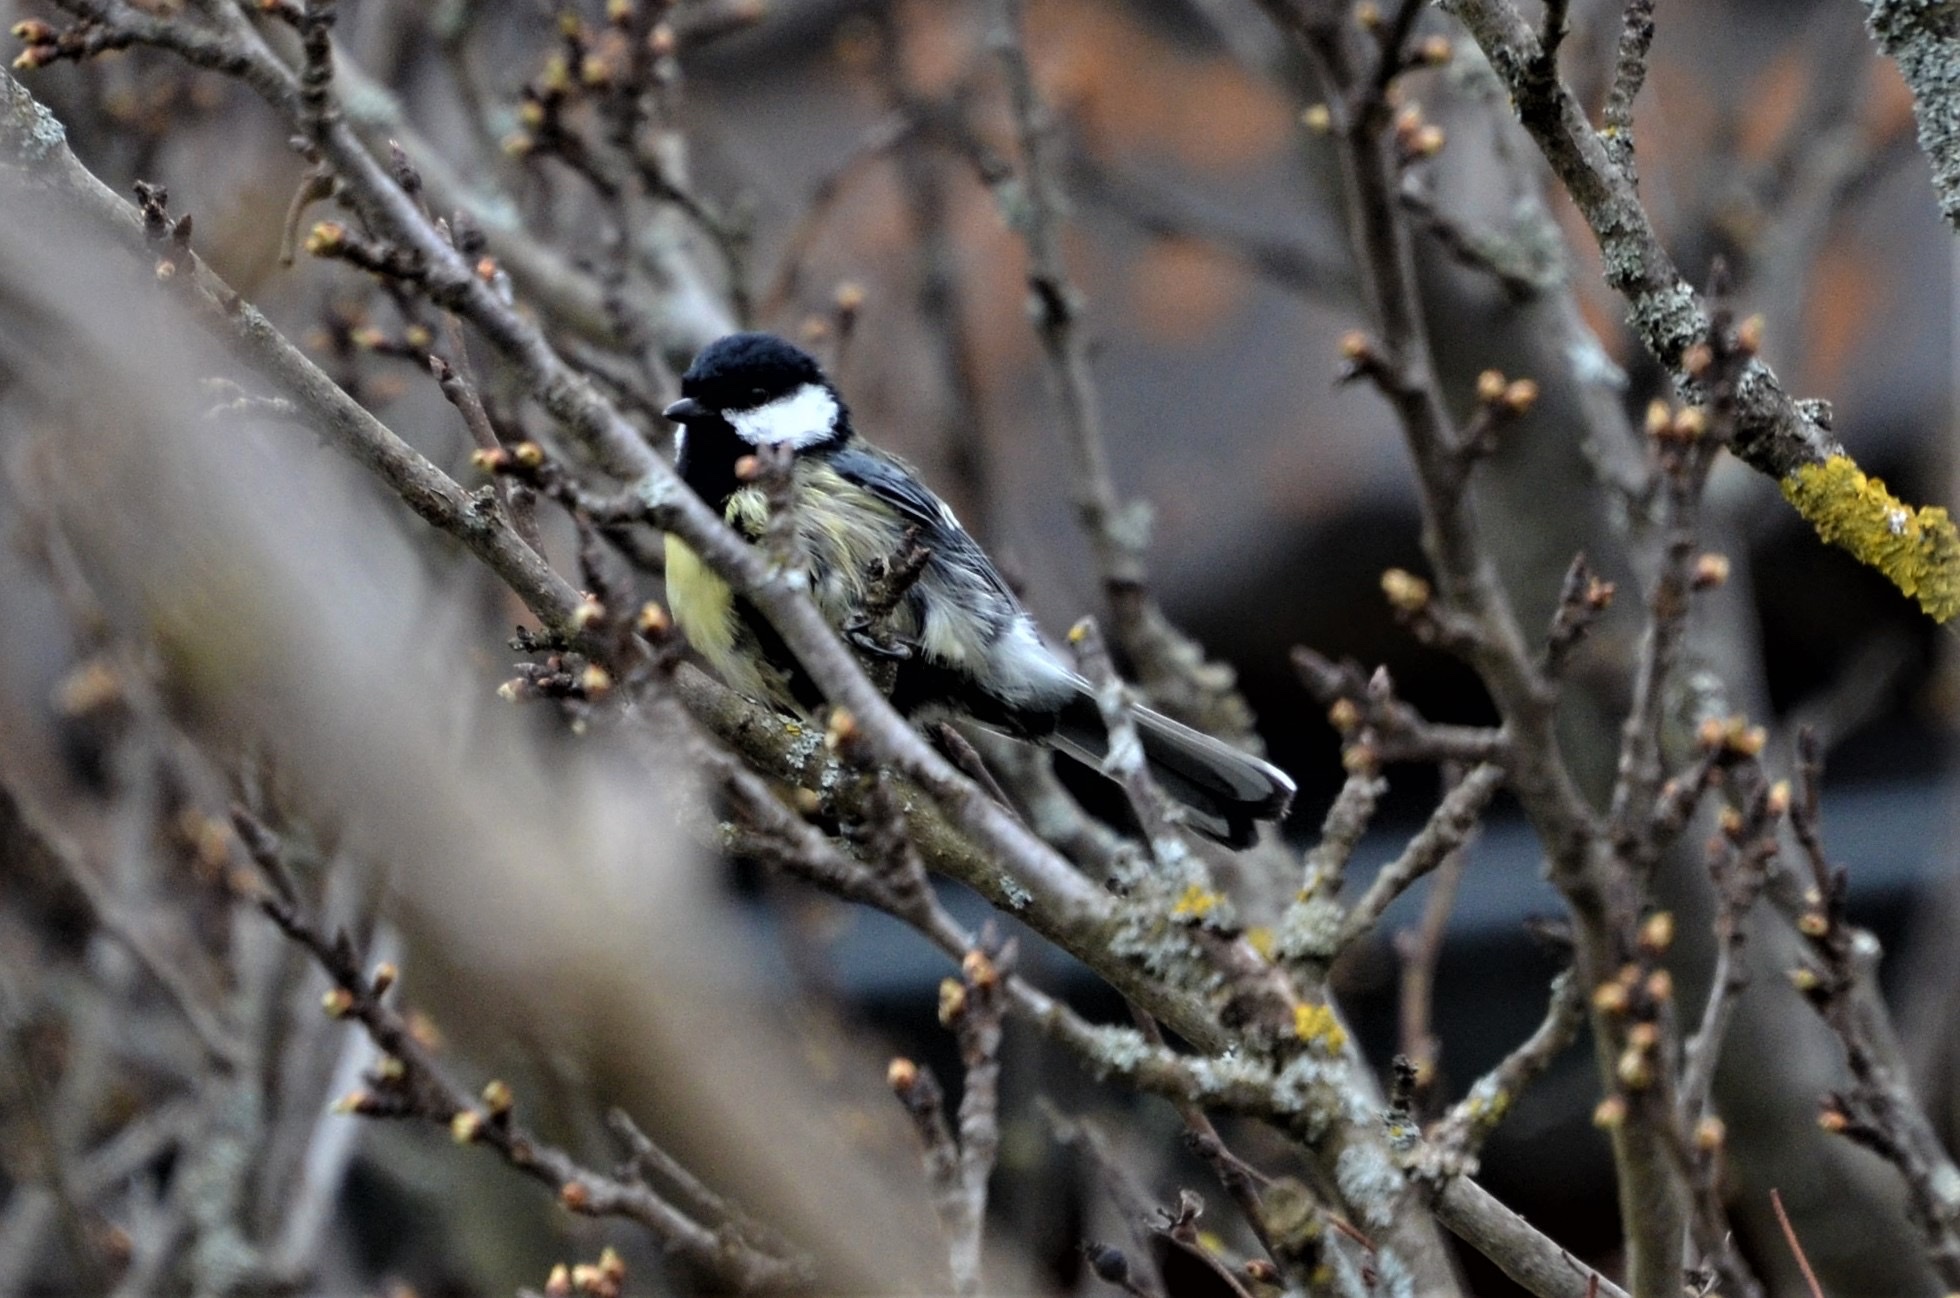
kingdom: Animalia
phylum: Chordata
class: Aves
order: Passeriformes
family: Paridae
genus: Parus
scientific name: Parus major
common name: Great tit
